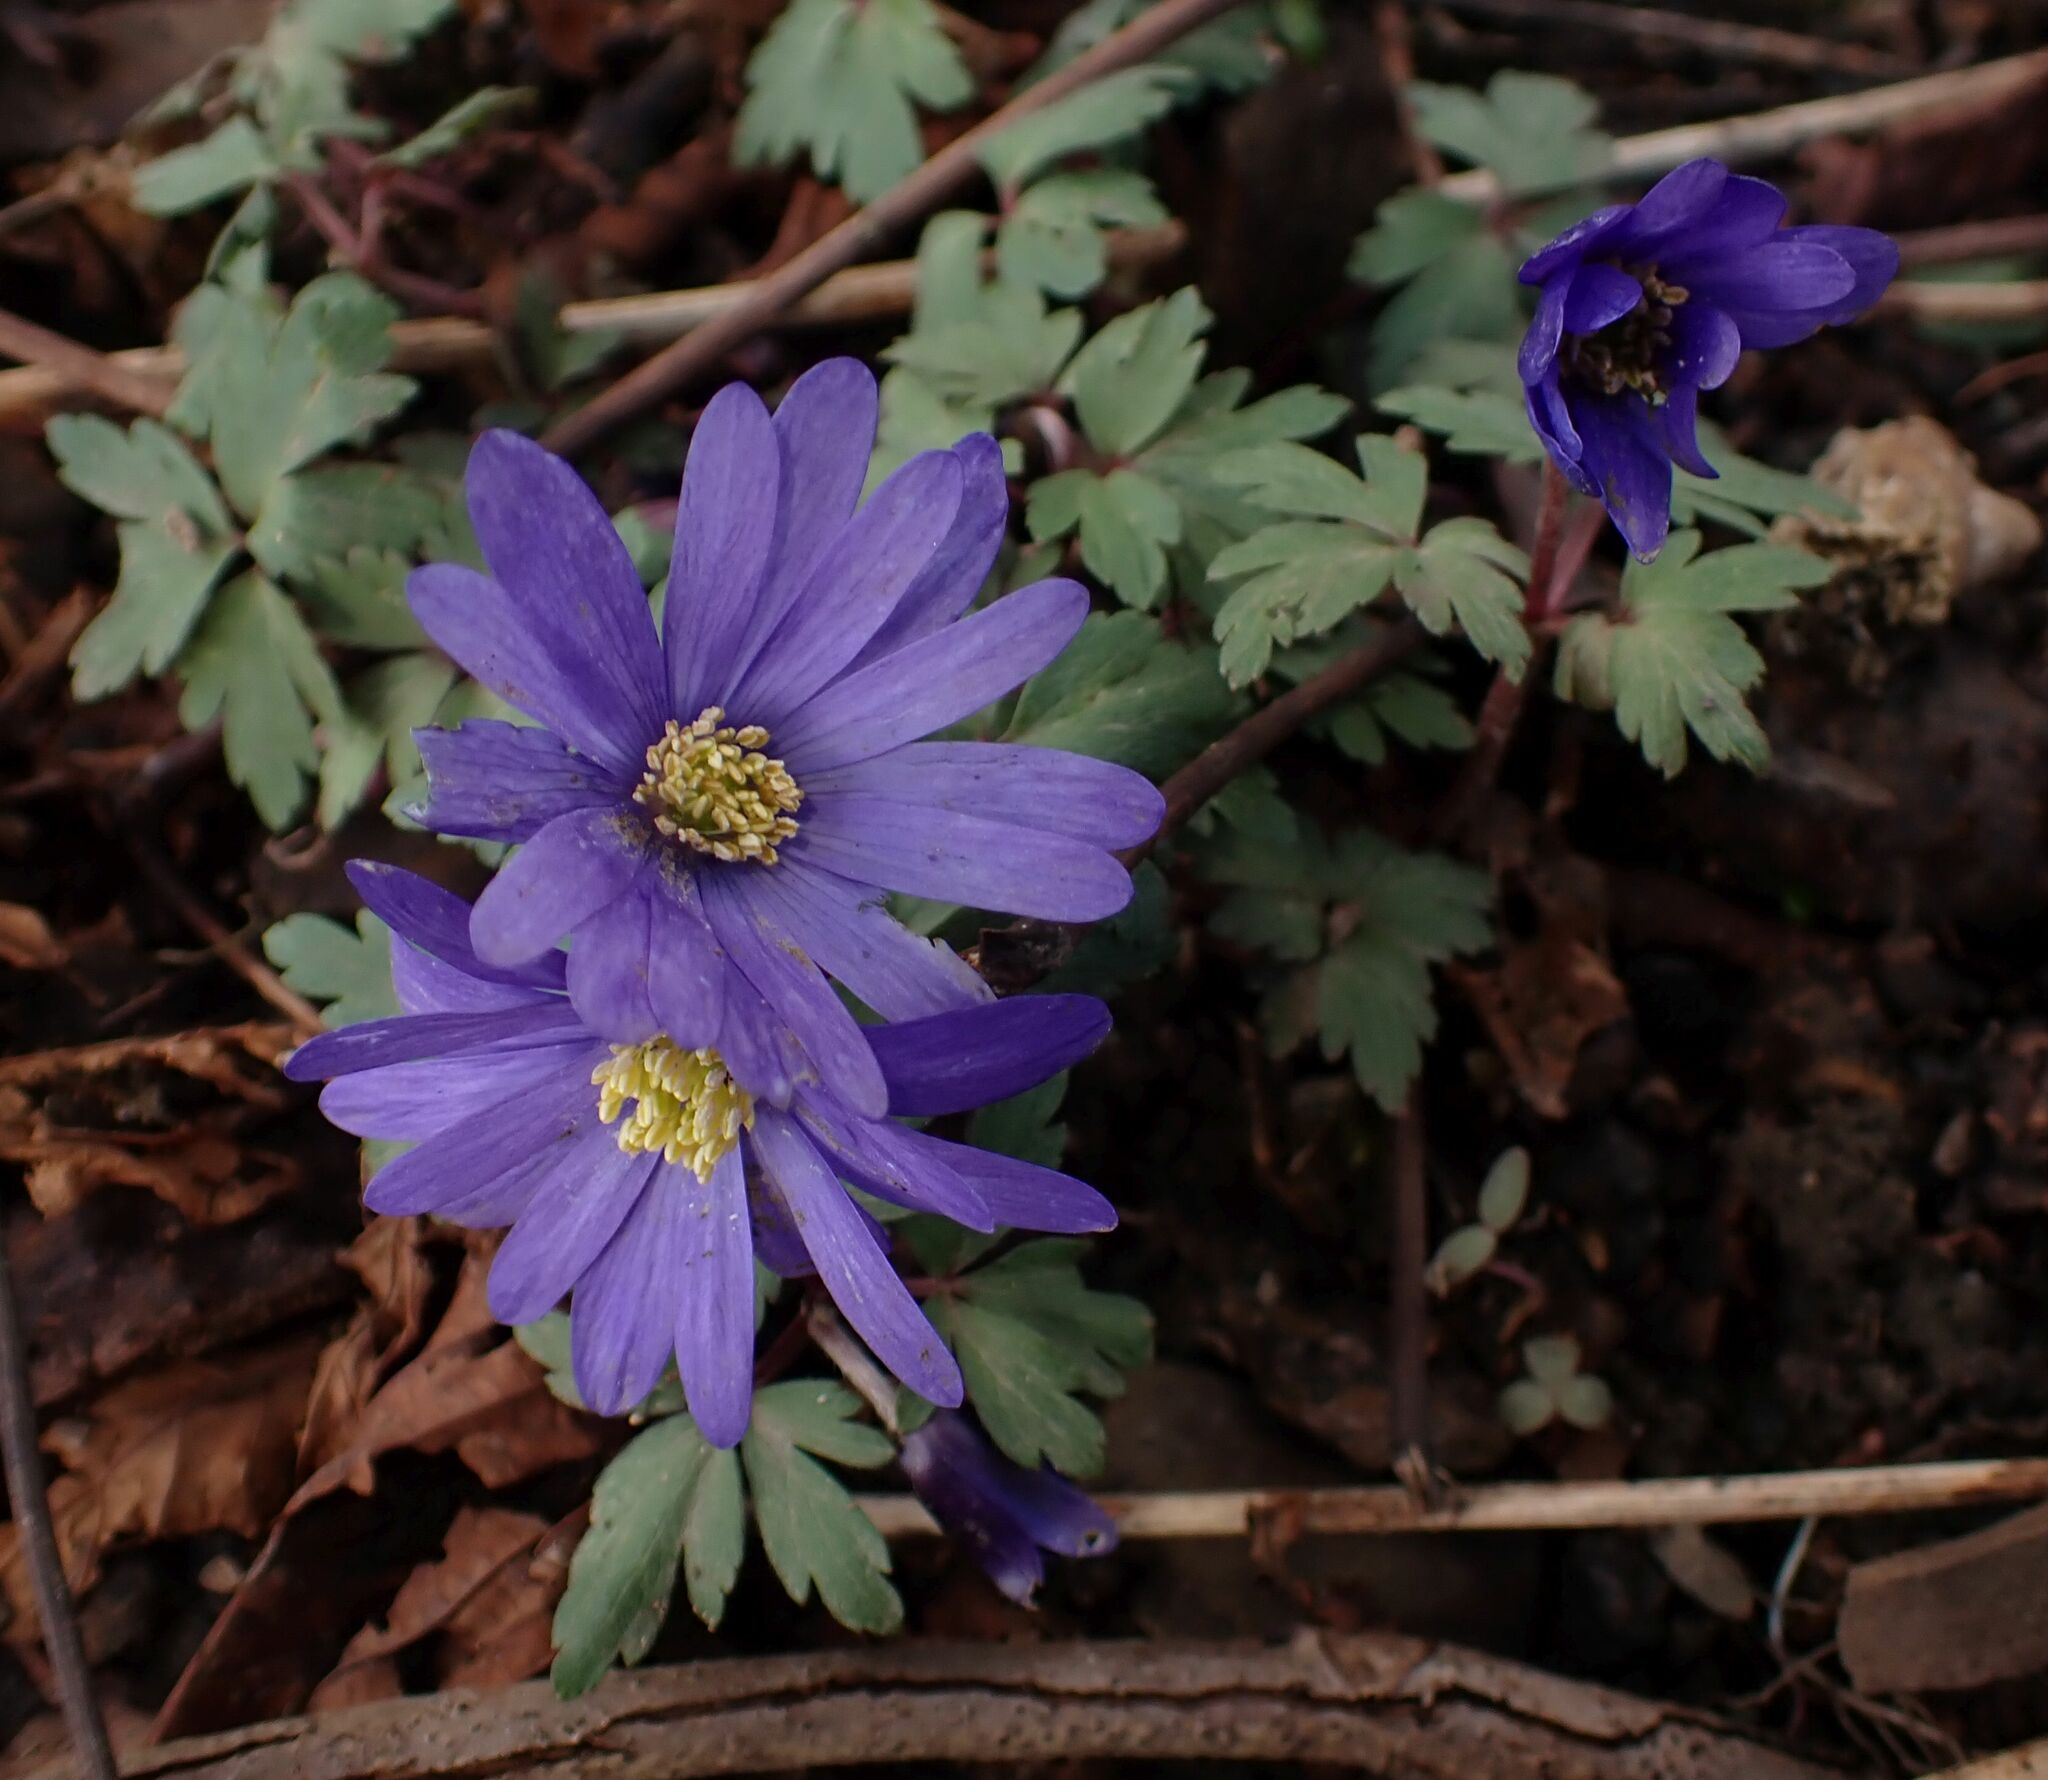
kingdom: Plantae
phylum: Tracheophyta
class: Magnoliopsida
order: Ranunculales
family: Ranunculaceae
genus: Anemone
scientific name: Anemone blanda
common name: Balkan anemone
